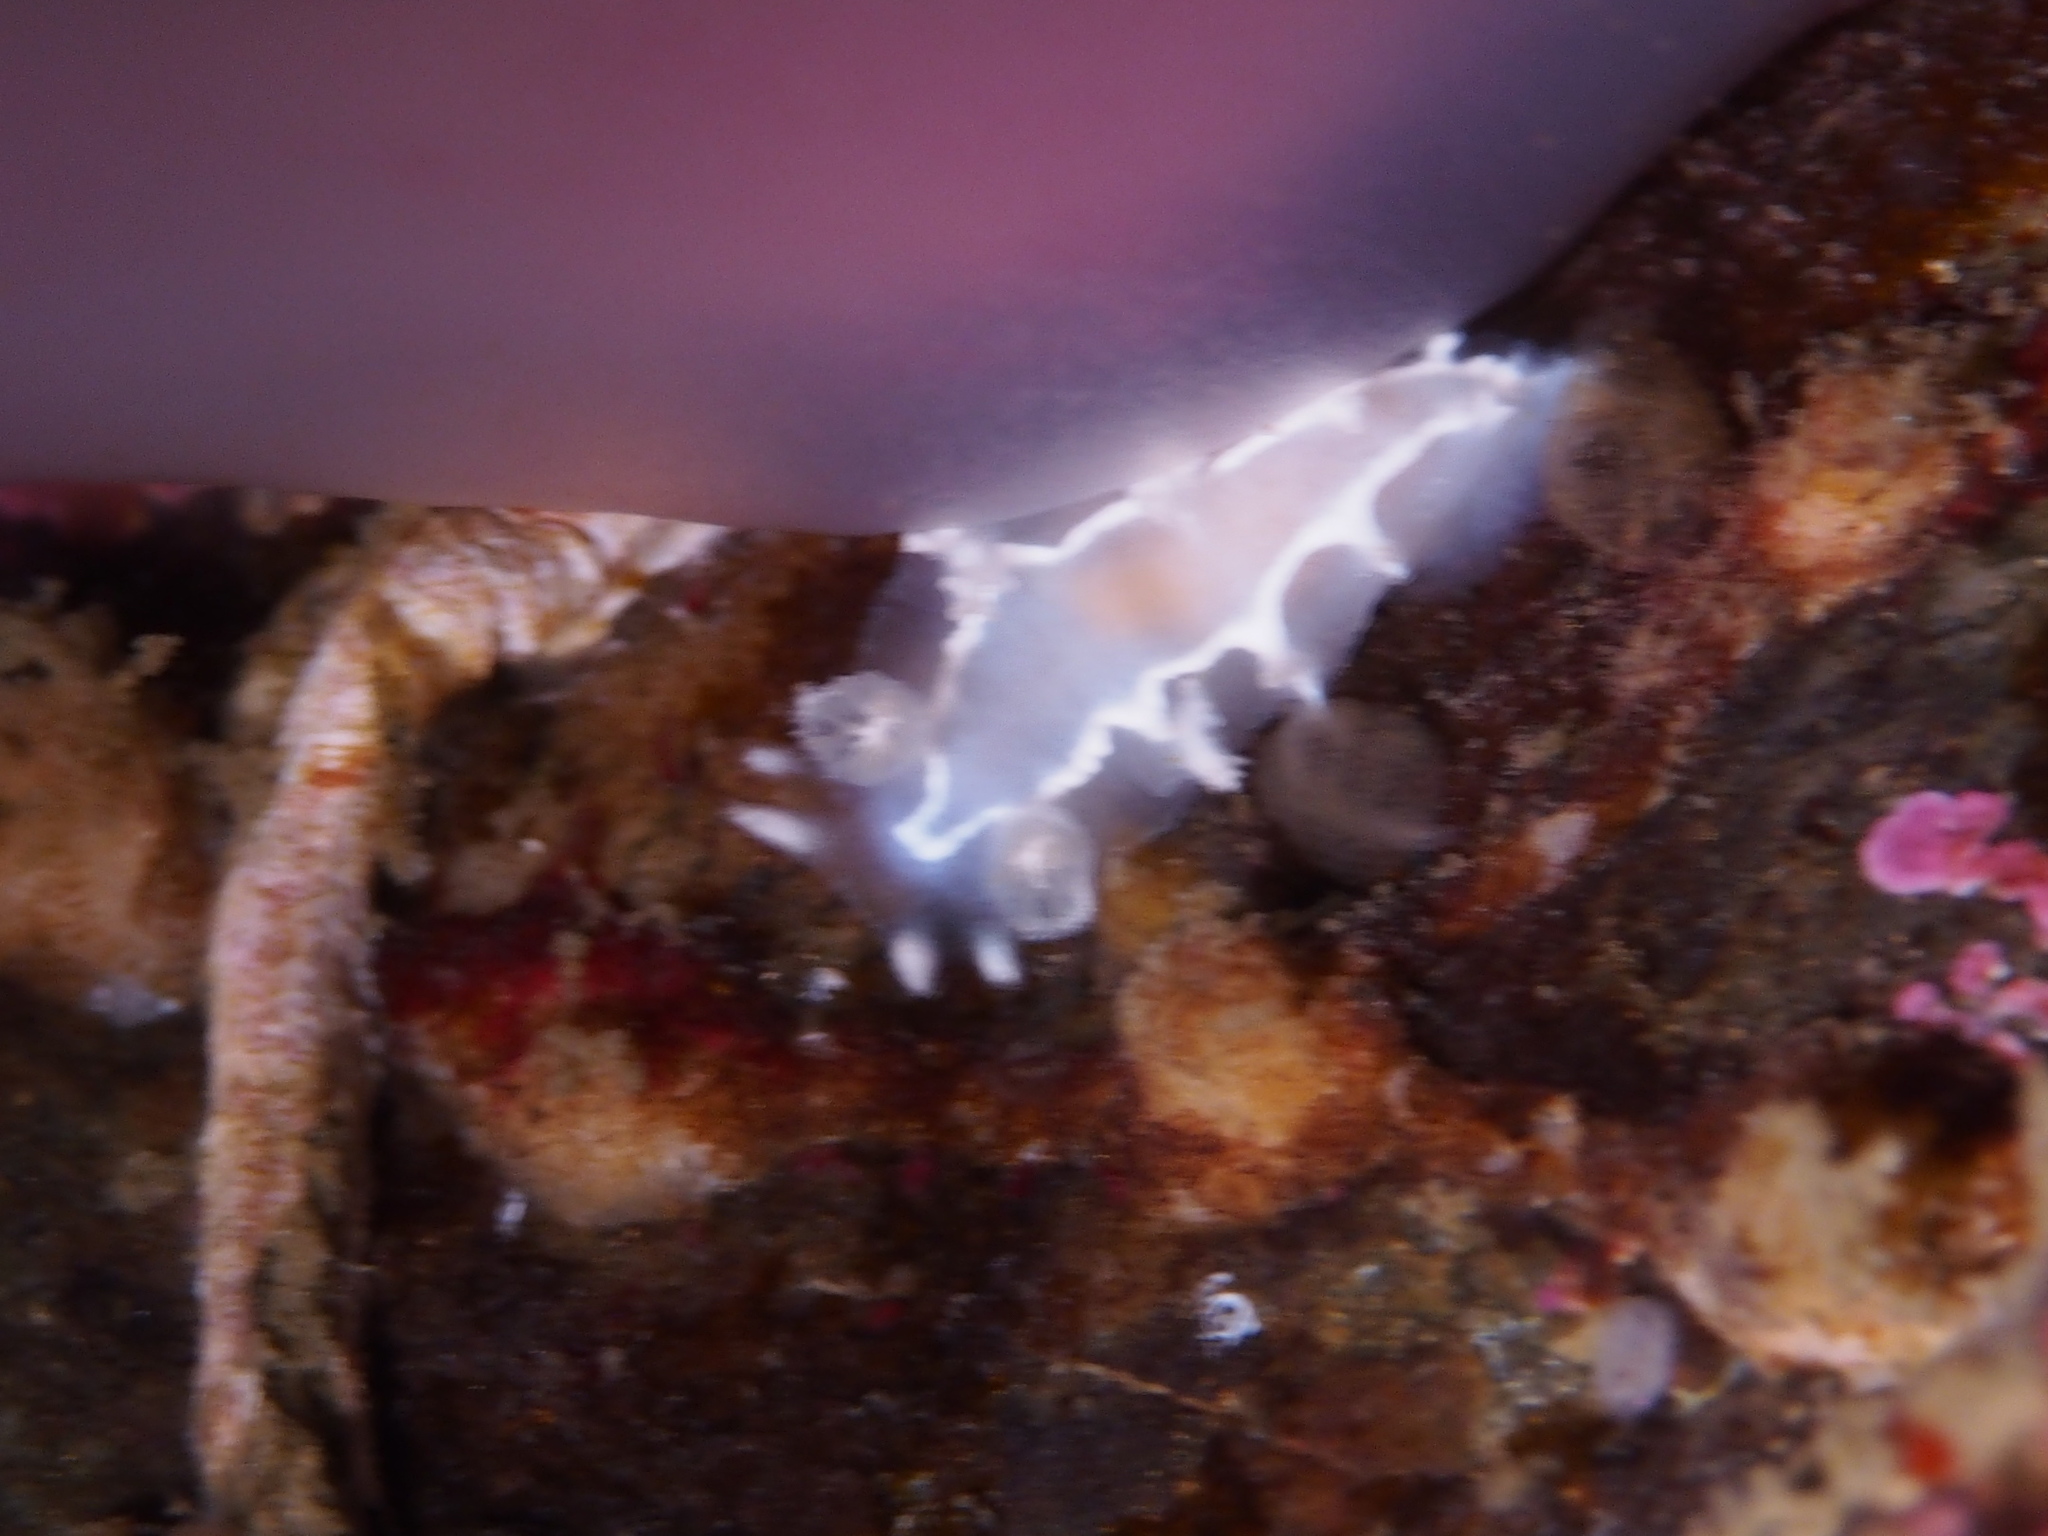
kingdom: Animalia
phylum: Mollusca
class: Gastropoda
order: Nudibranchia
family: Tritoniidae
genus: Duvaucelia
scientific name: Duvaucelia lineata
